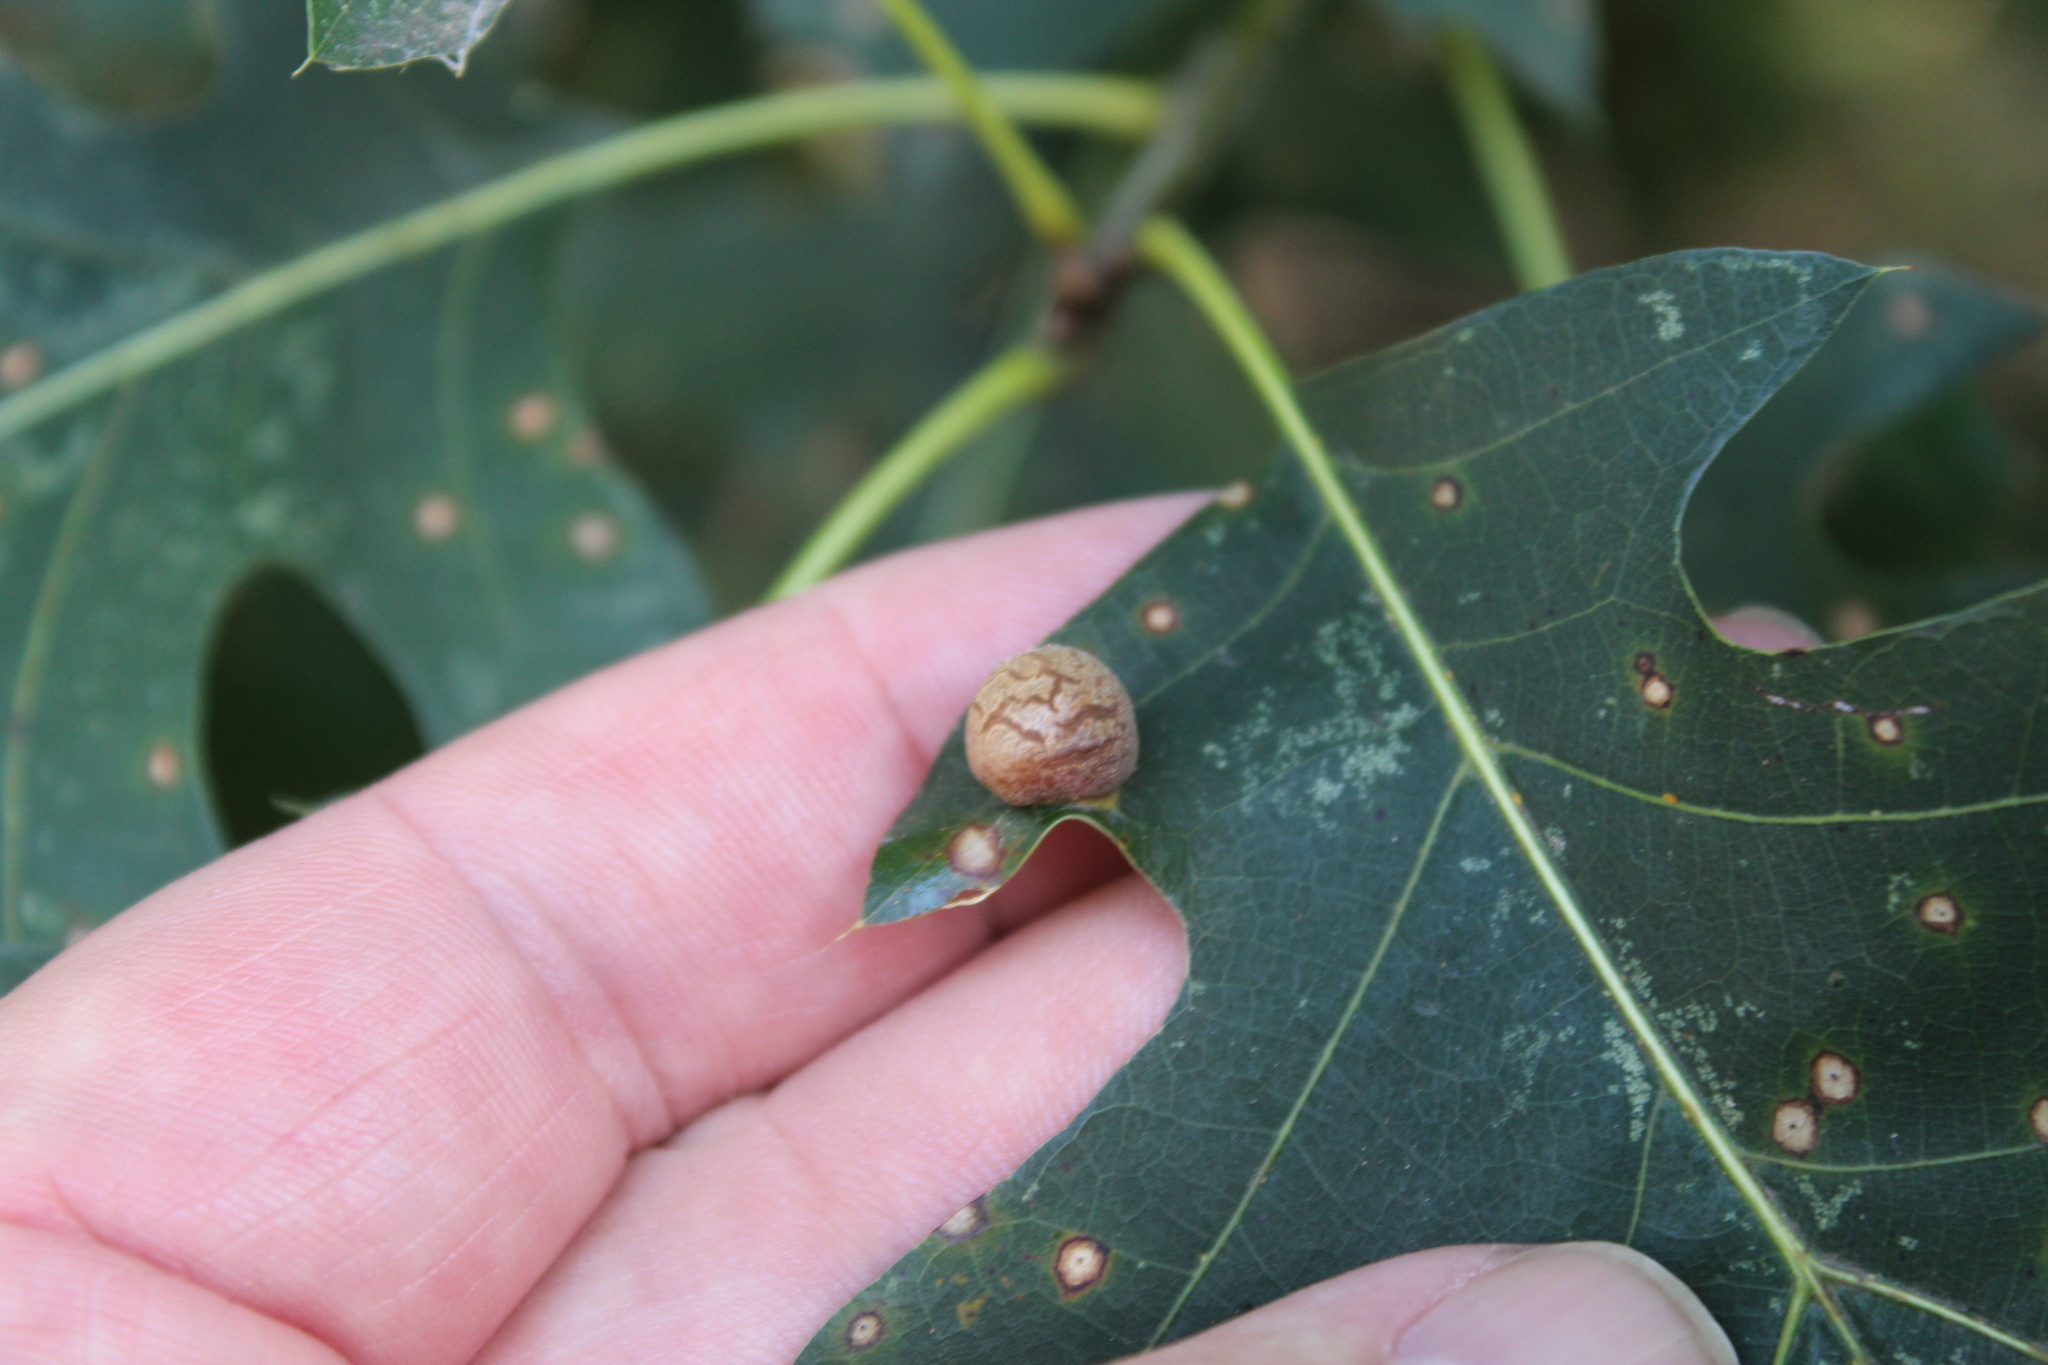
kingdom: Animalia
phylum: Arthropoda
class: Insecta
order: Diptera
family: Cecidomyiidae
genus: Polystepha
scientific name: Polystepha pilulae
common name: Oak leaf gall midge
